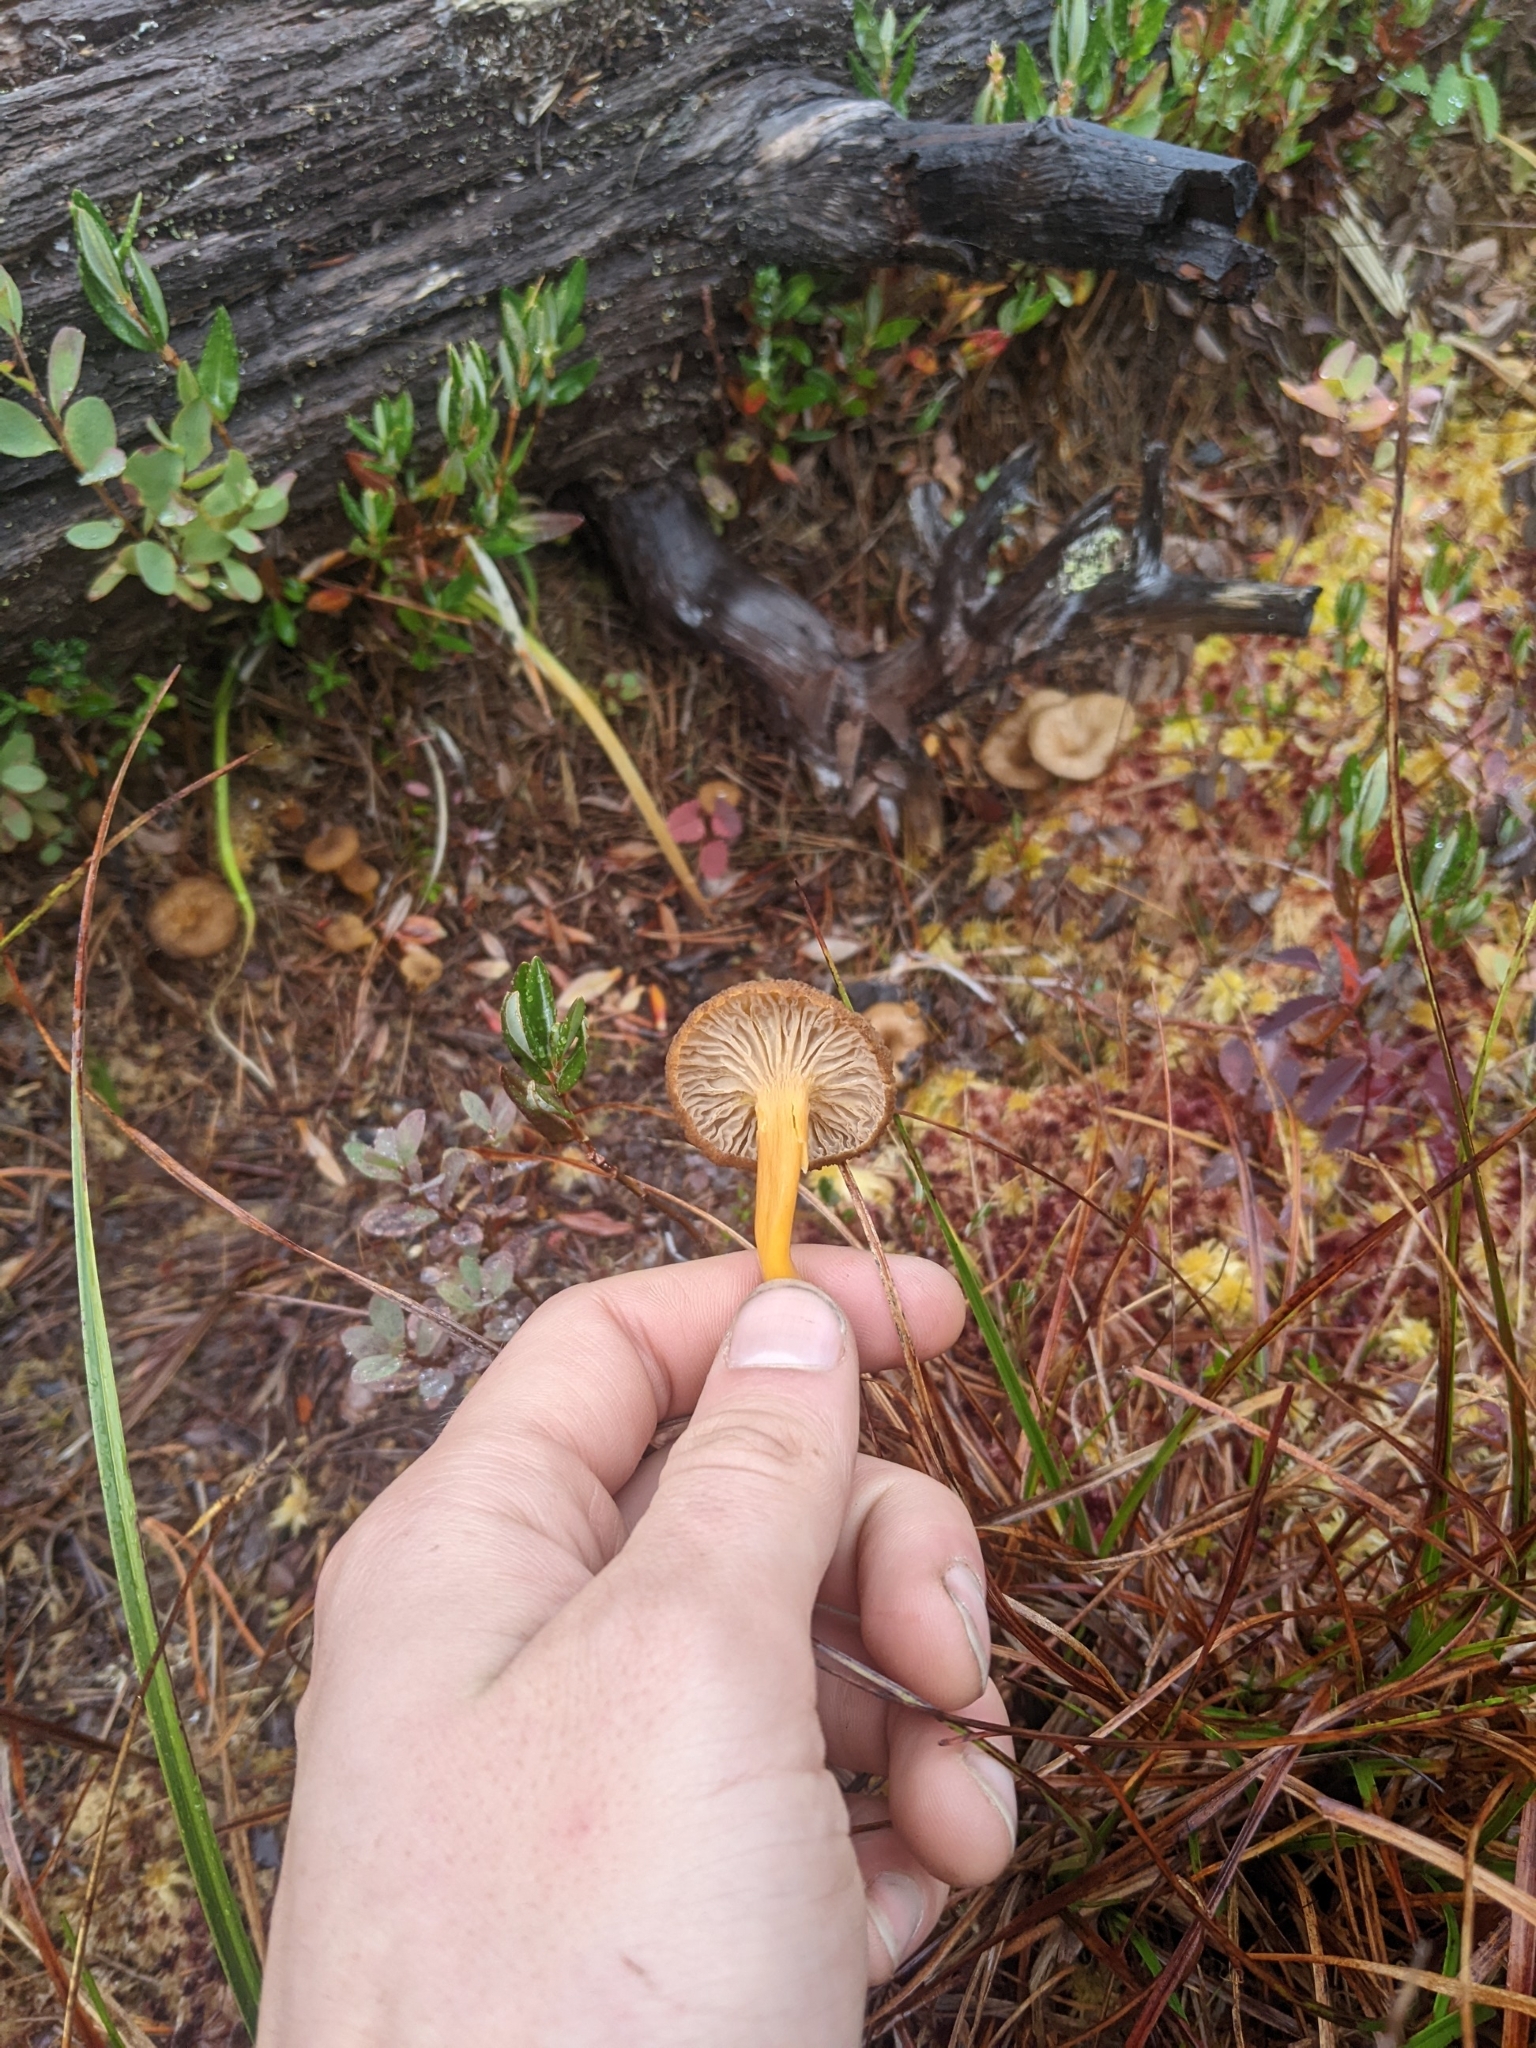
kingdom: Fungi
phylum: Basidiomycota
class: Agaricomycetes
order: Cantharellales
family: Hydnaceae
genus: Craterellus
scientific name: Craterellus tubaeformis
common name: Yellowfoot
